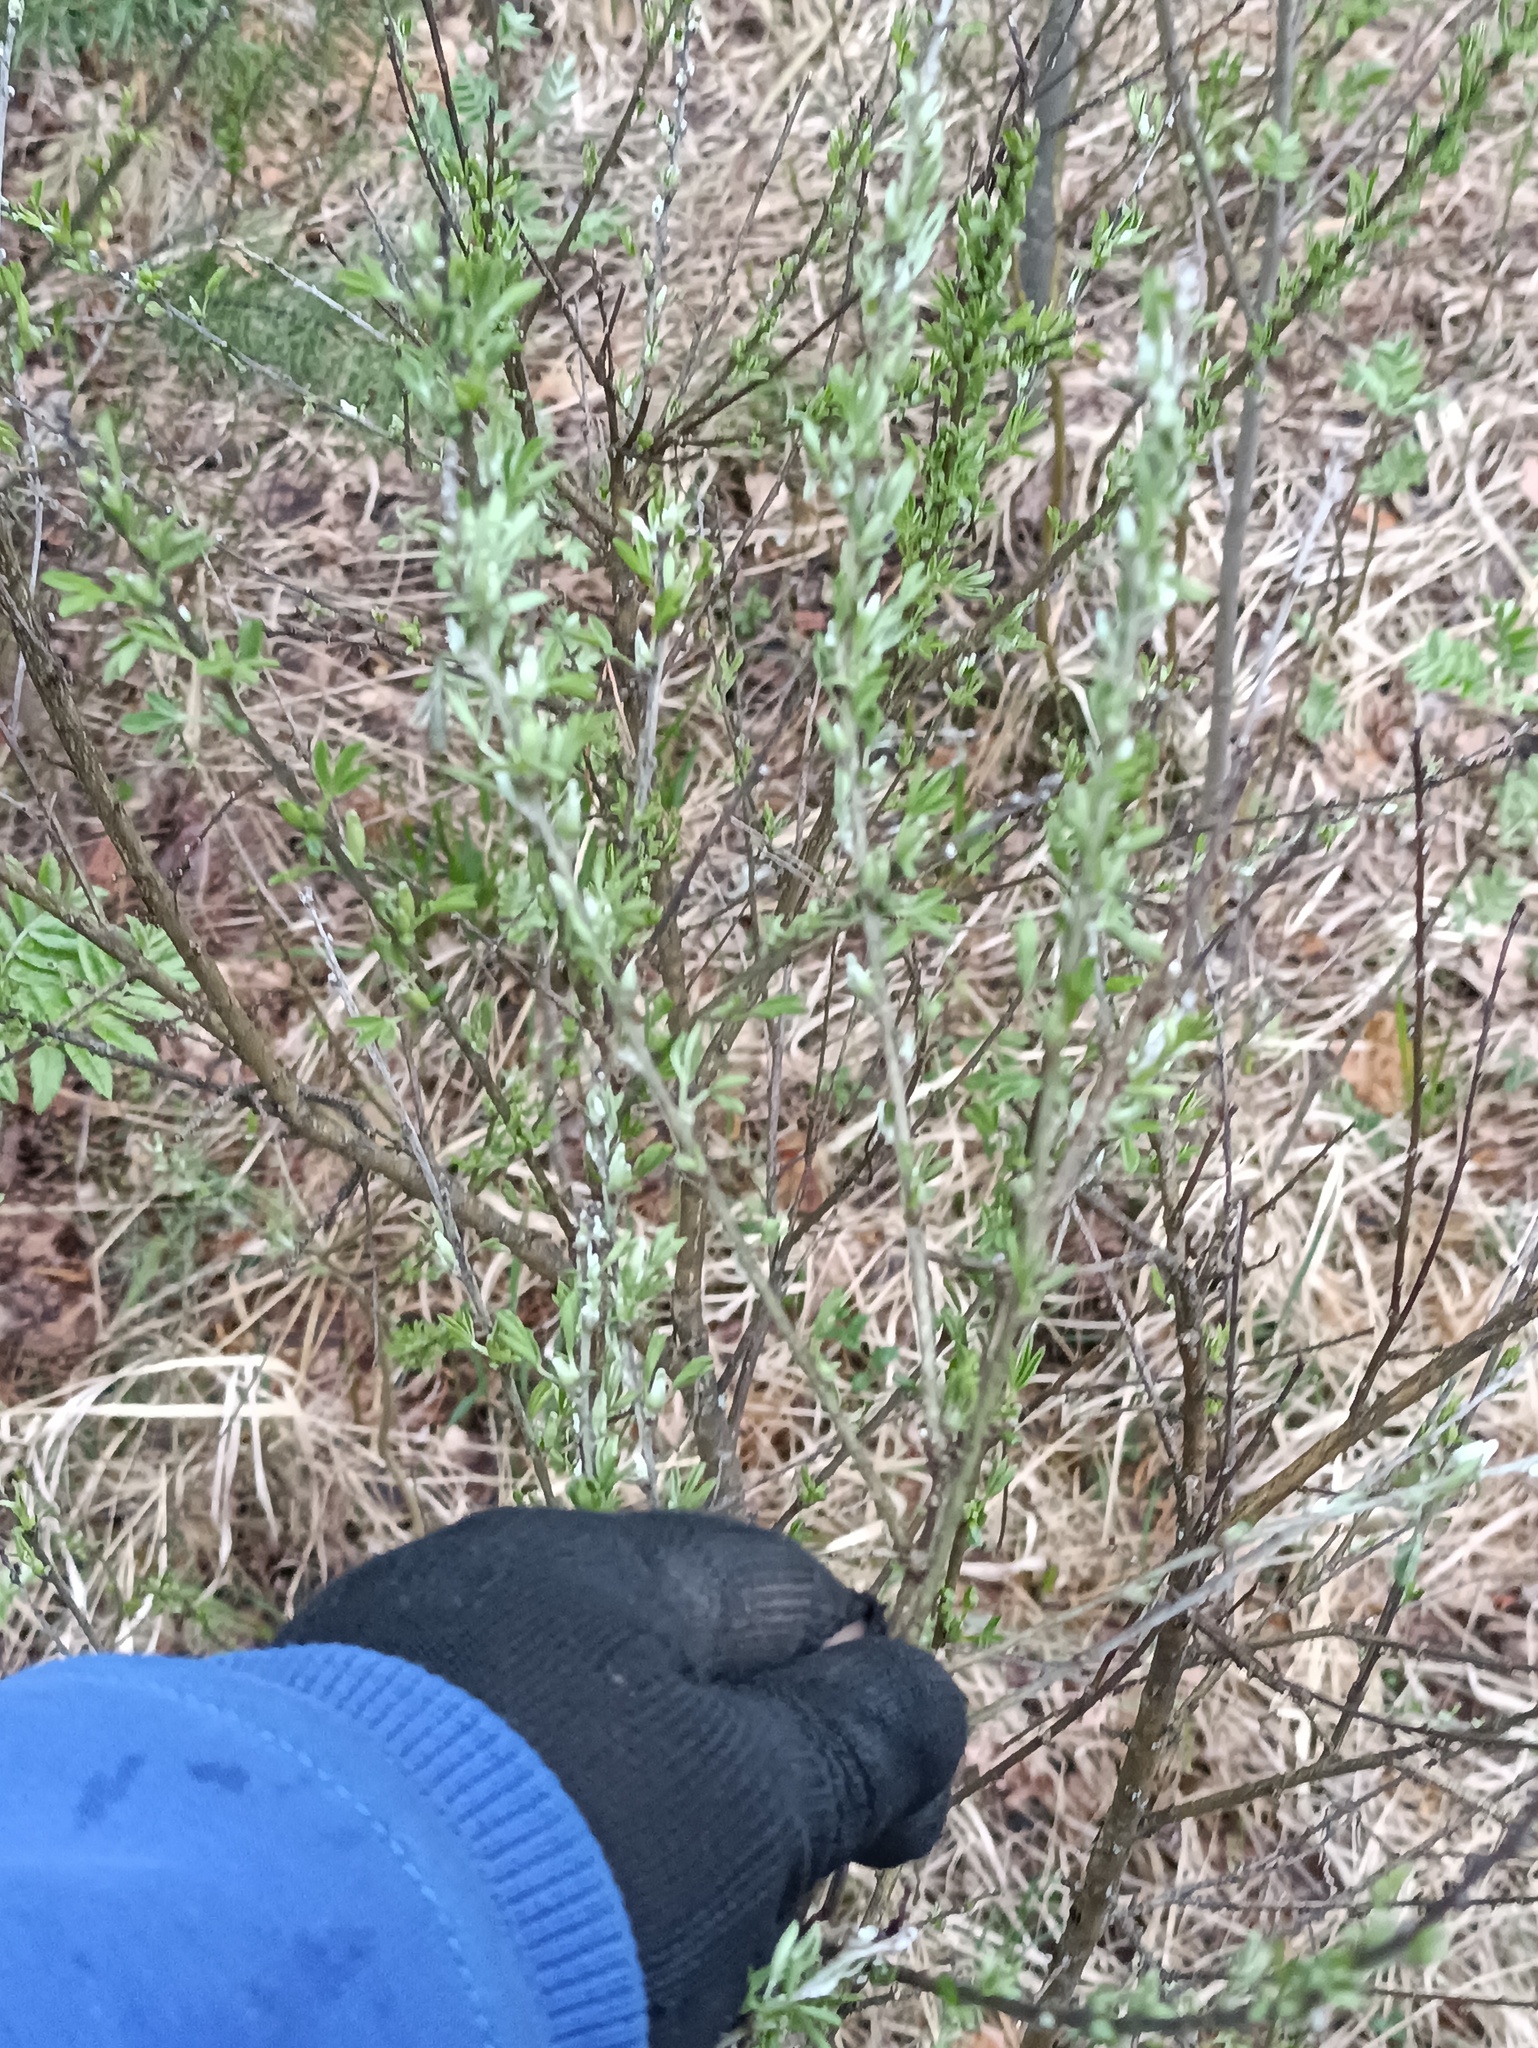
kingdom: Plantae
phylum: Tracheophyta
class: Magnoliopsida
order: Fabales
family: Fabaceae
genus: Chamaecytisus
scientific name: Chamaecytisus ruthenicus
